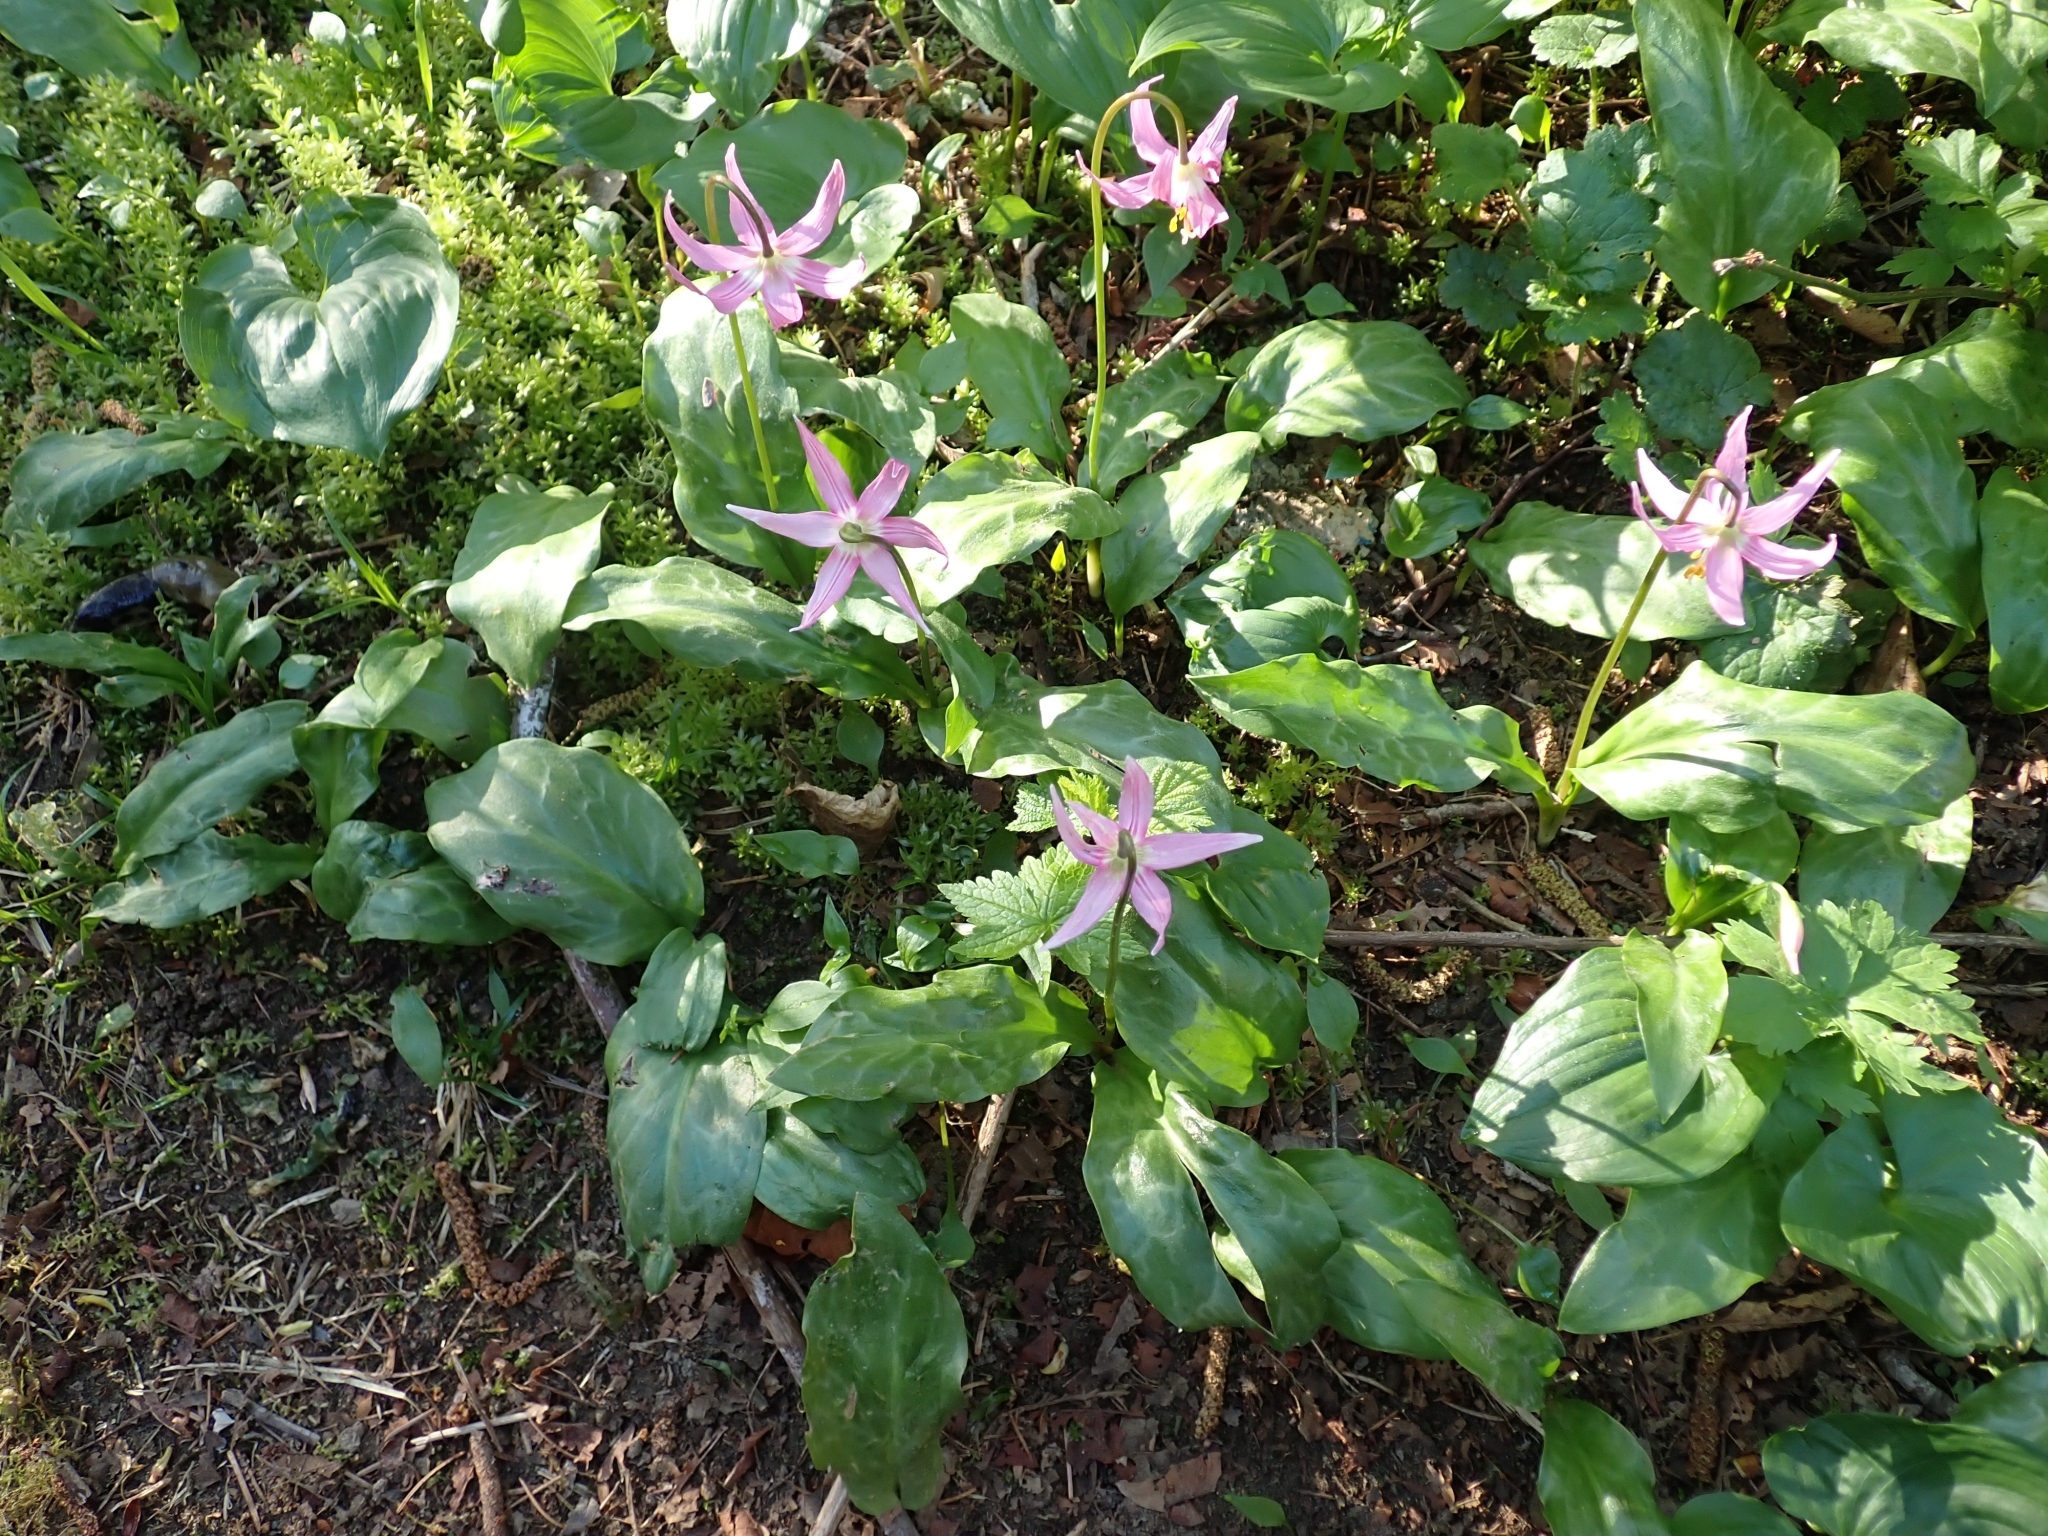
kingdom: Plantae
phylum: Tracheophyta
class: Liliopsida
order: Liliales
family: Liliaceae
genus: Erythronium
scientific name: Erythronium revolutum
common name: Pink fawn-lily
